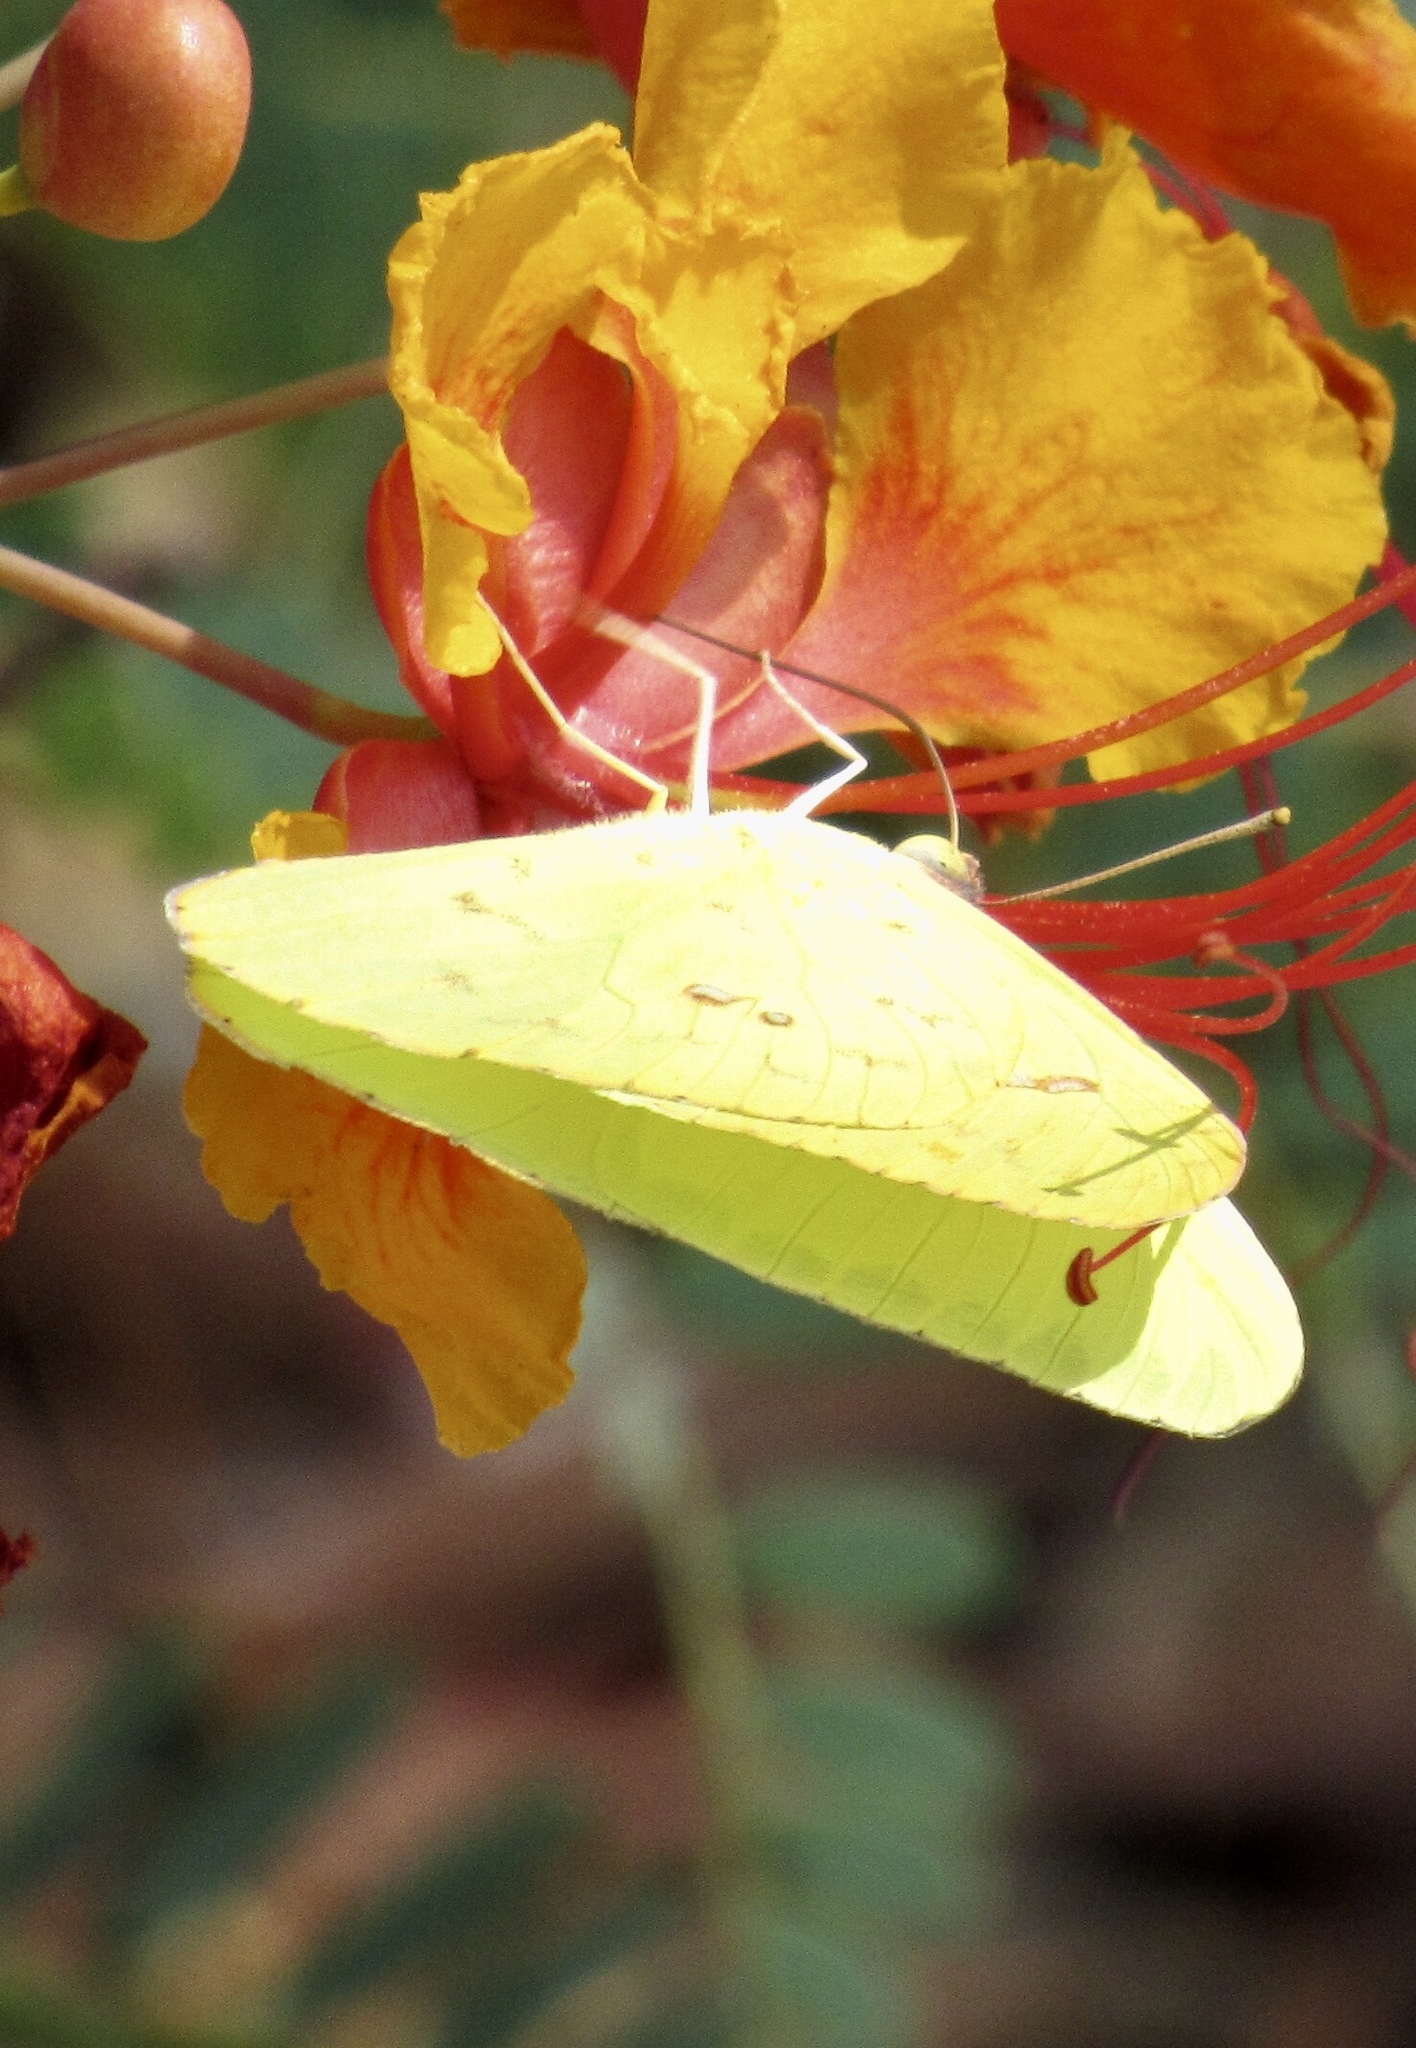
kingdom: Animalia
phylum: Arthropoda
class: Insecta
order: Lepidoptera
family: Pieridae
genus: Phoebis
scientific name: Phoebis sennae
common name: Cloudless sulphur
